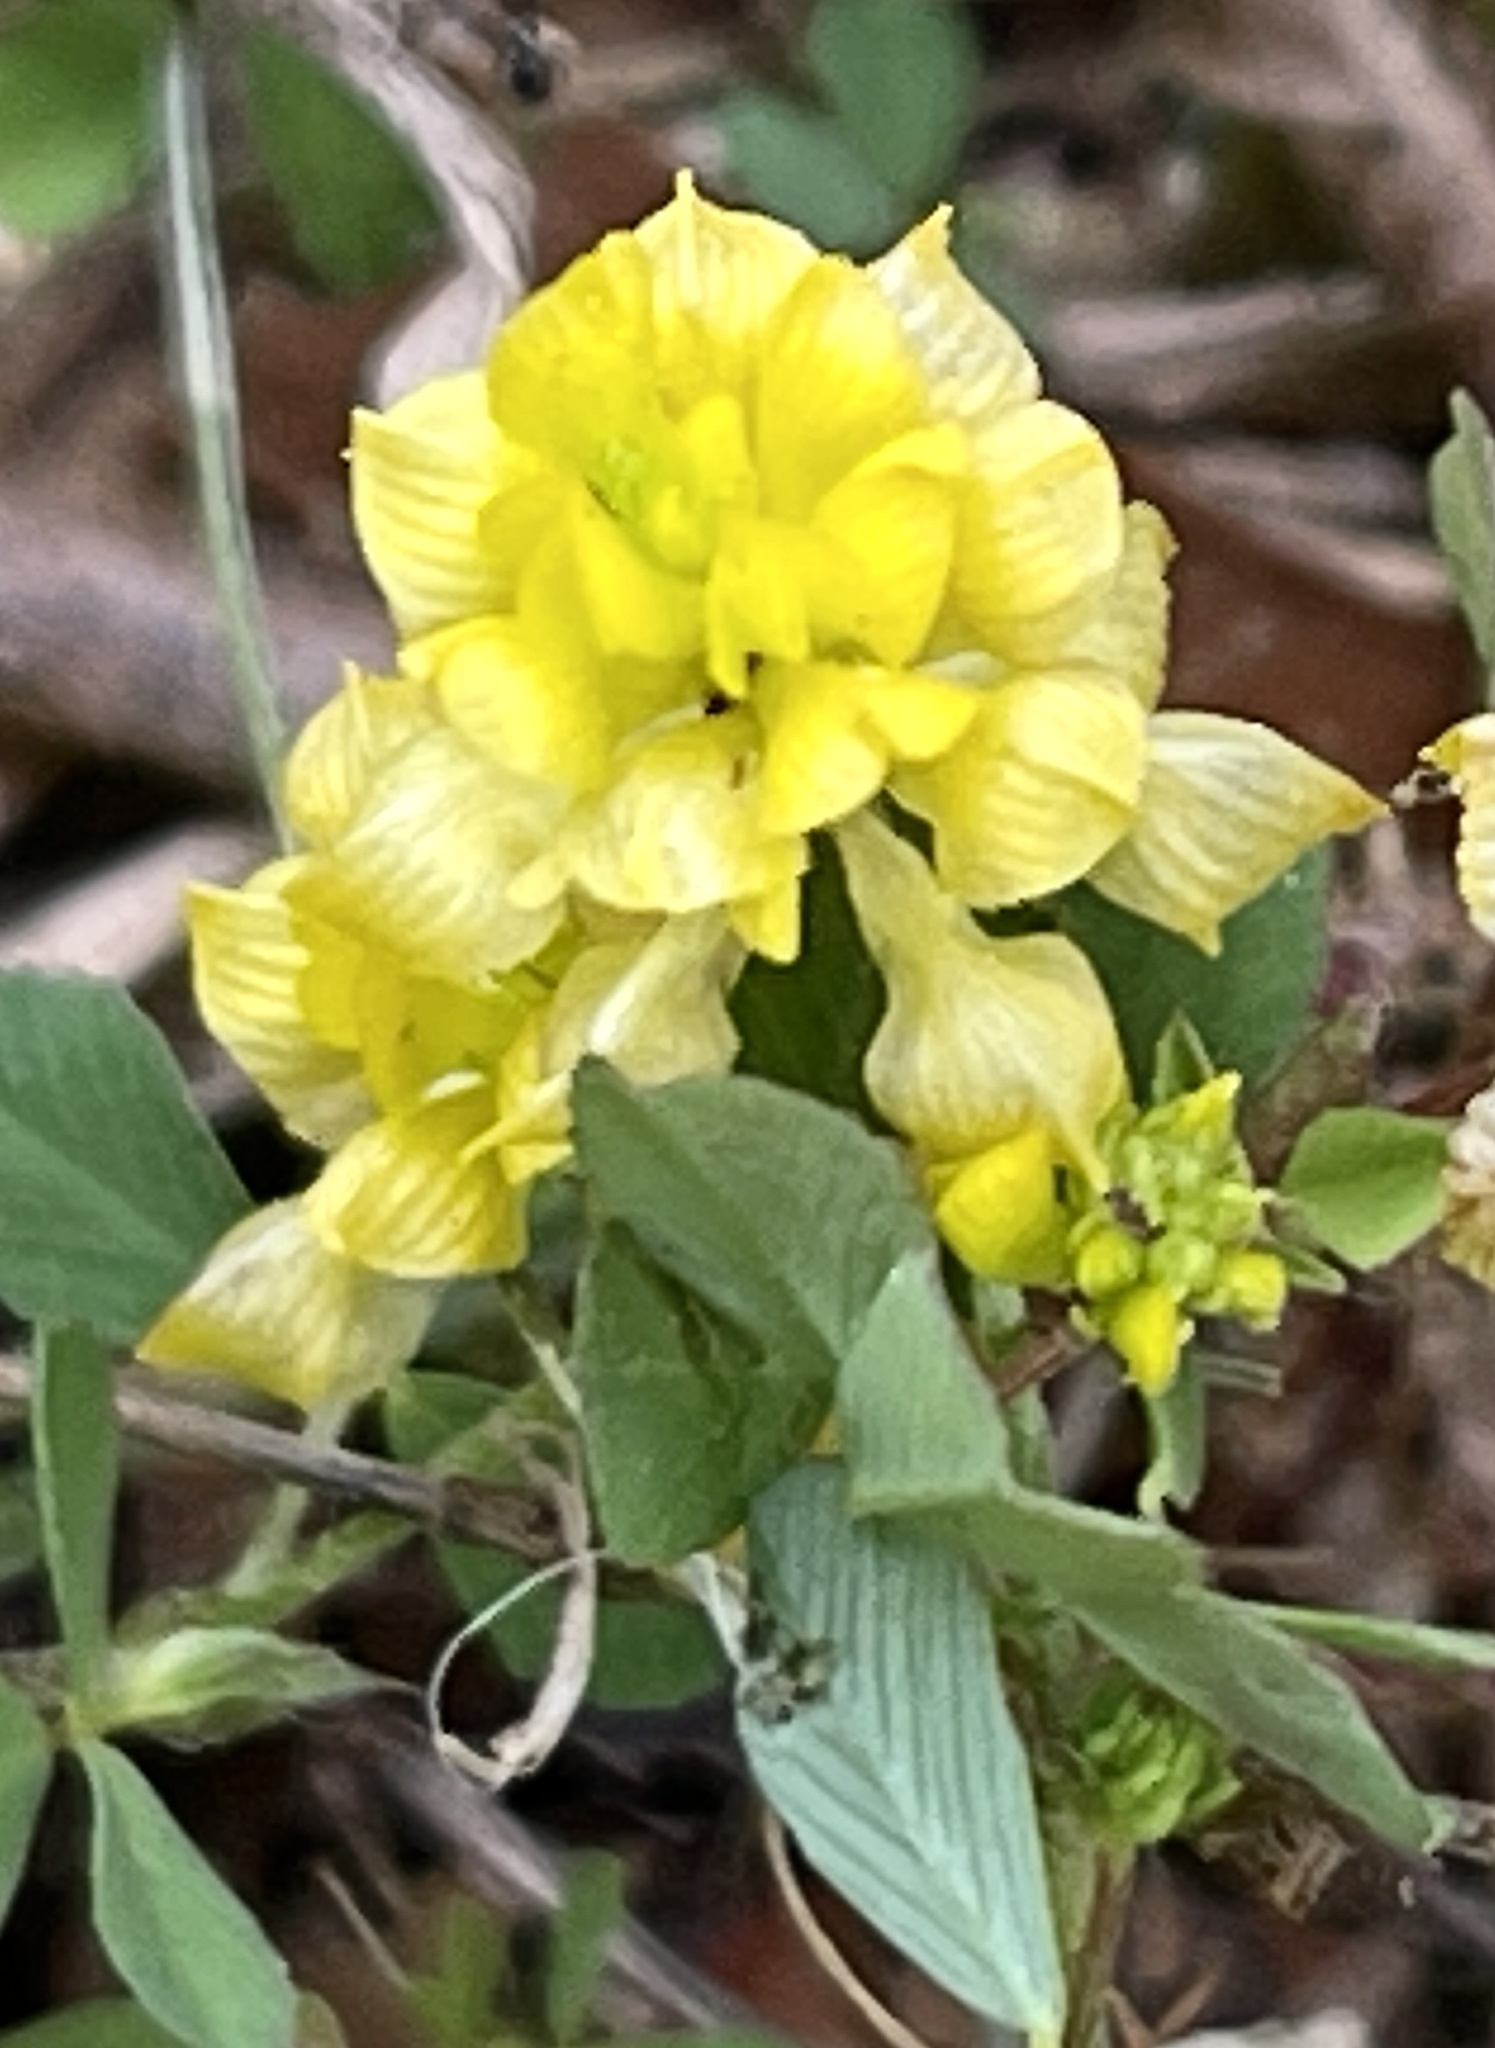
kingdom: Plantae
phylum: Tracheophyta
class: Magnoliopsida
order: Fabales
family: Fabaceae
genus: Trifolium
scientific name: Trifolium campestre
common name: Field clover
